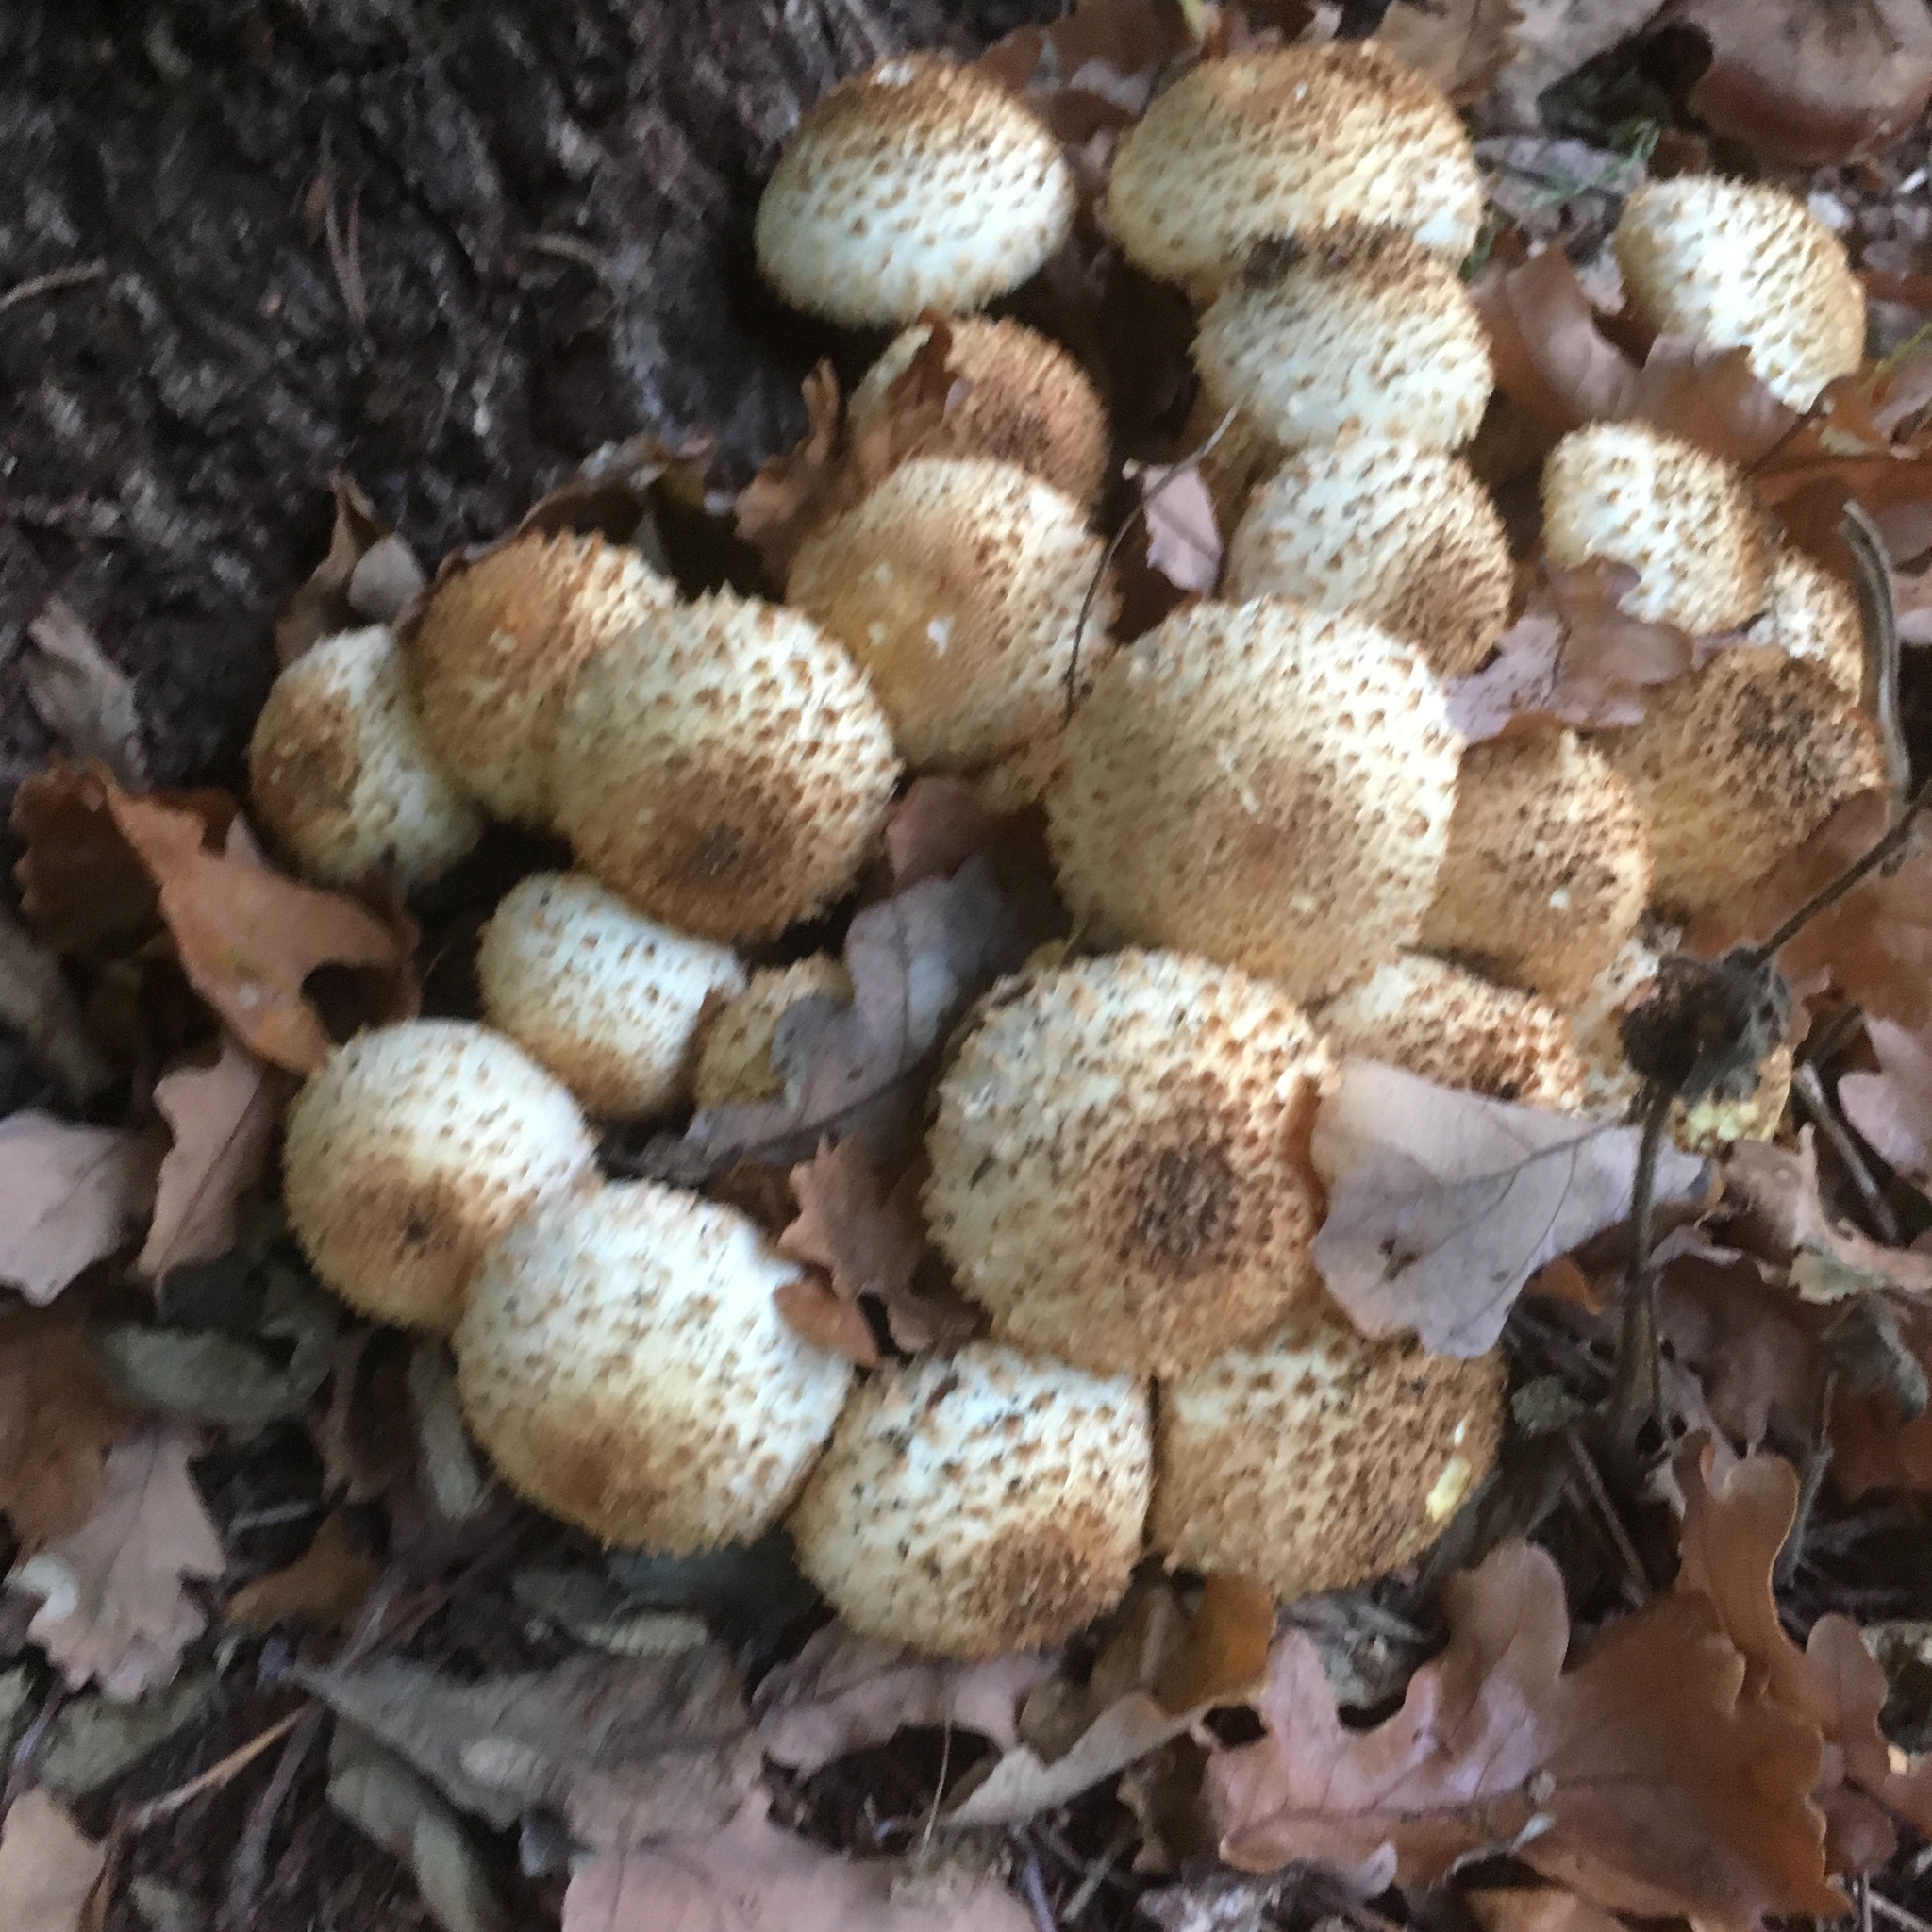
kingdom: Fungi
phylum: Basidiomycota
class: Agaricomycetes
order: Agaricales
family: Strophariaceae
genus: Pholiota
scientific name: Pholiota squarrosa
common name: Shaggy pholiota
